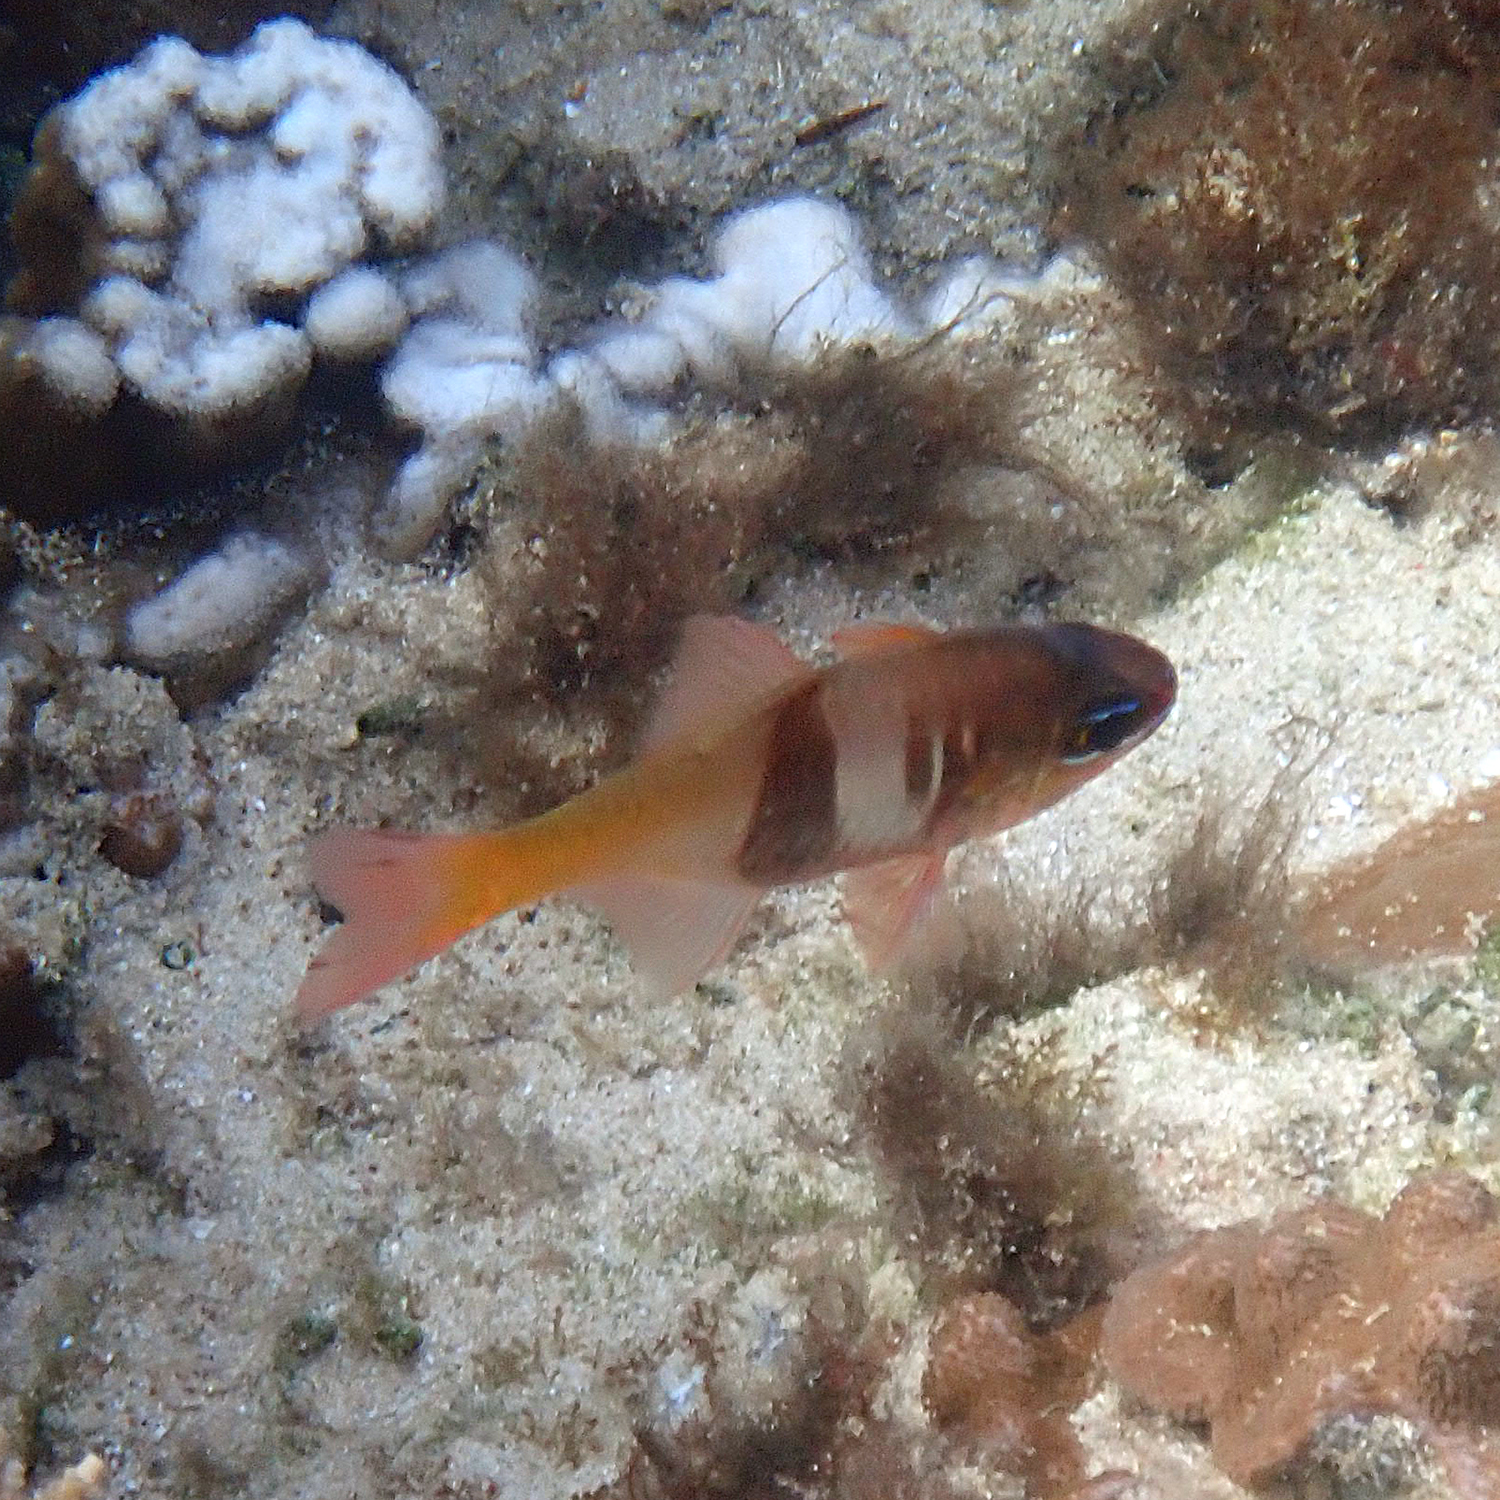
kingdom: Animalia
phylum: Chordata
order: Perciformes
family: Apogonidae
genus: Taeniamia
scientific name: Taeniamia leai
